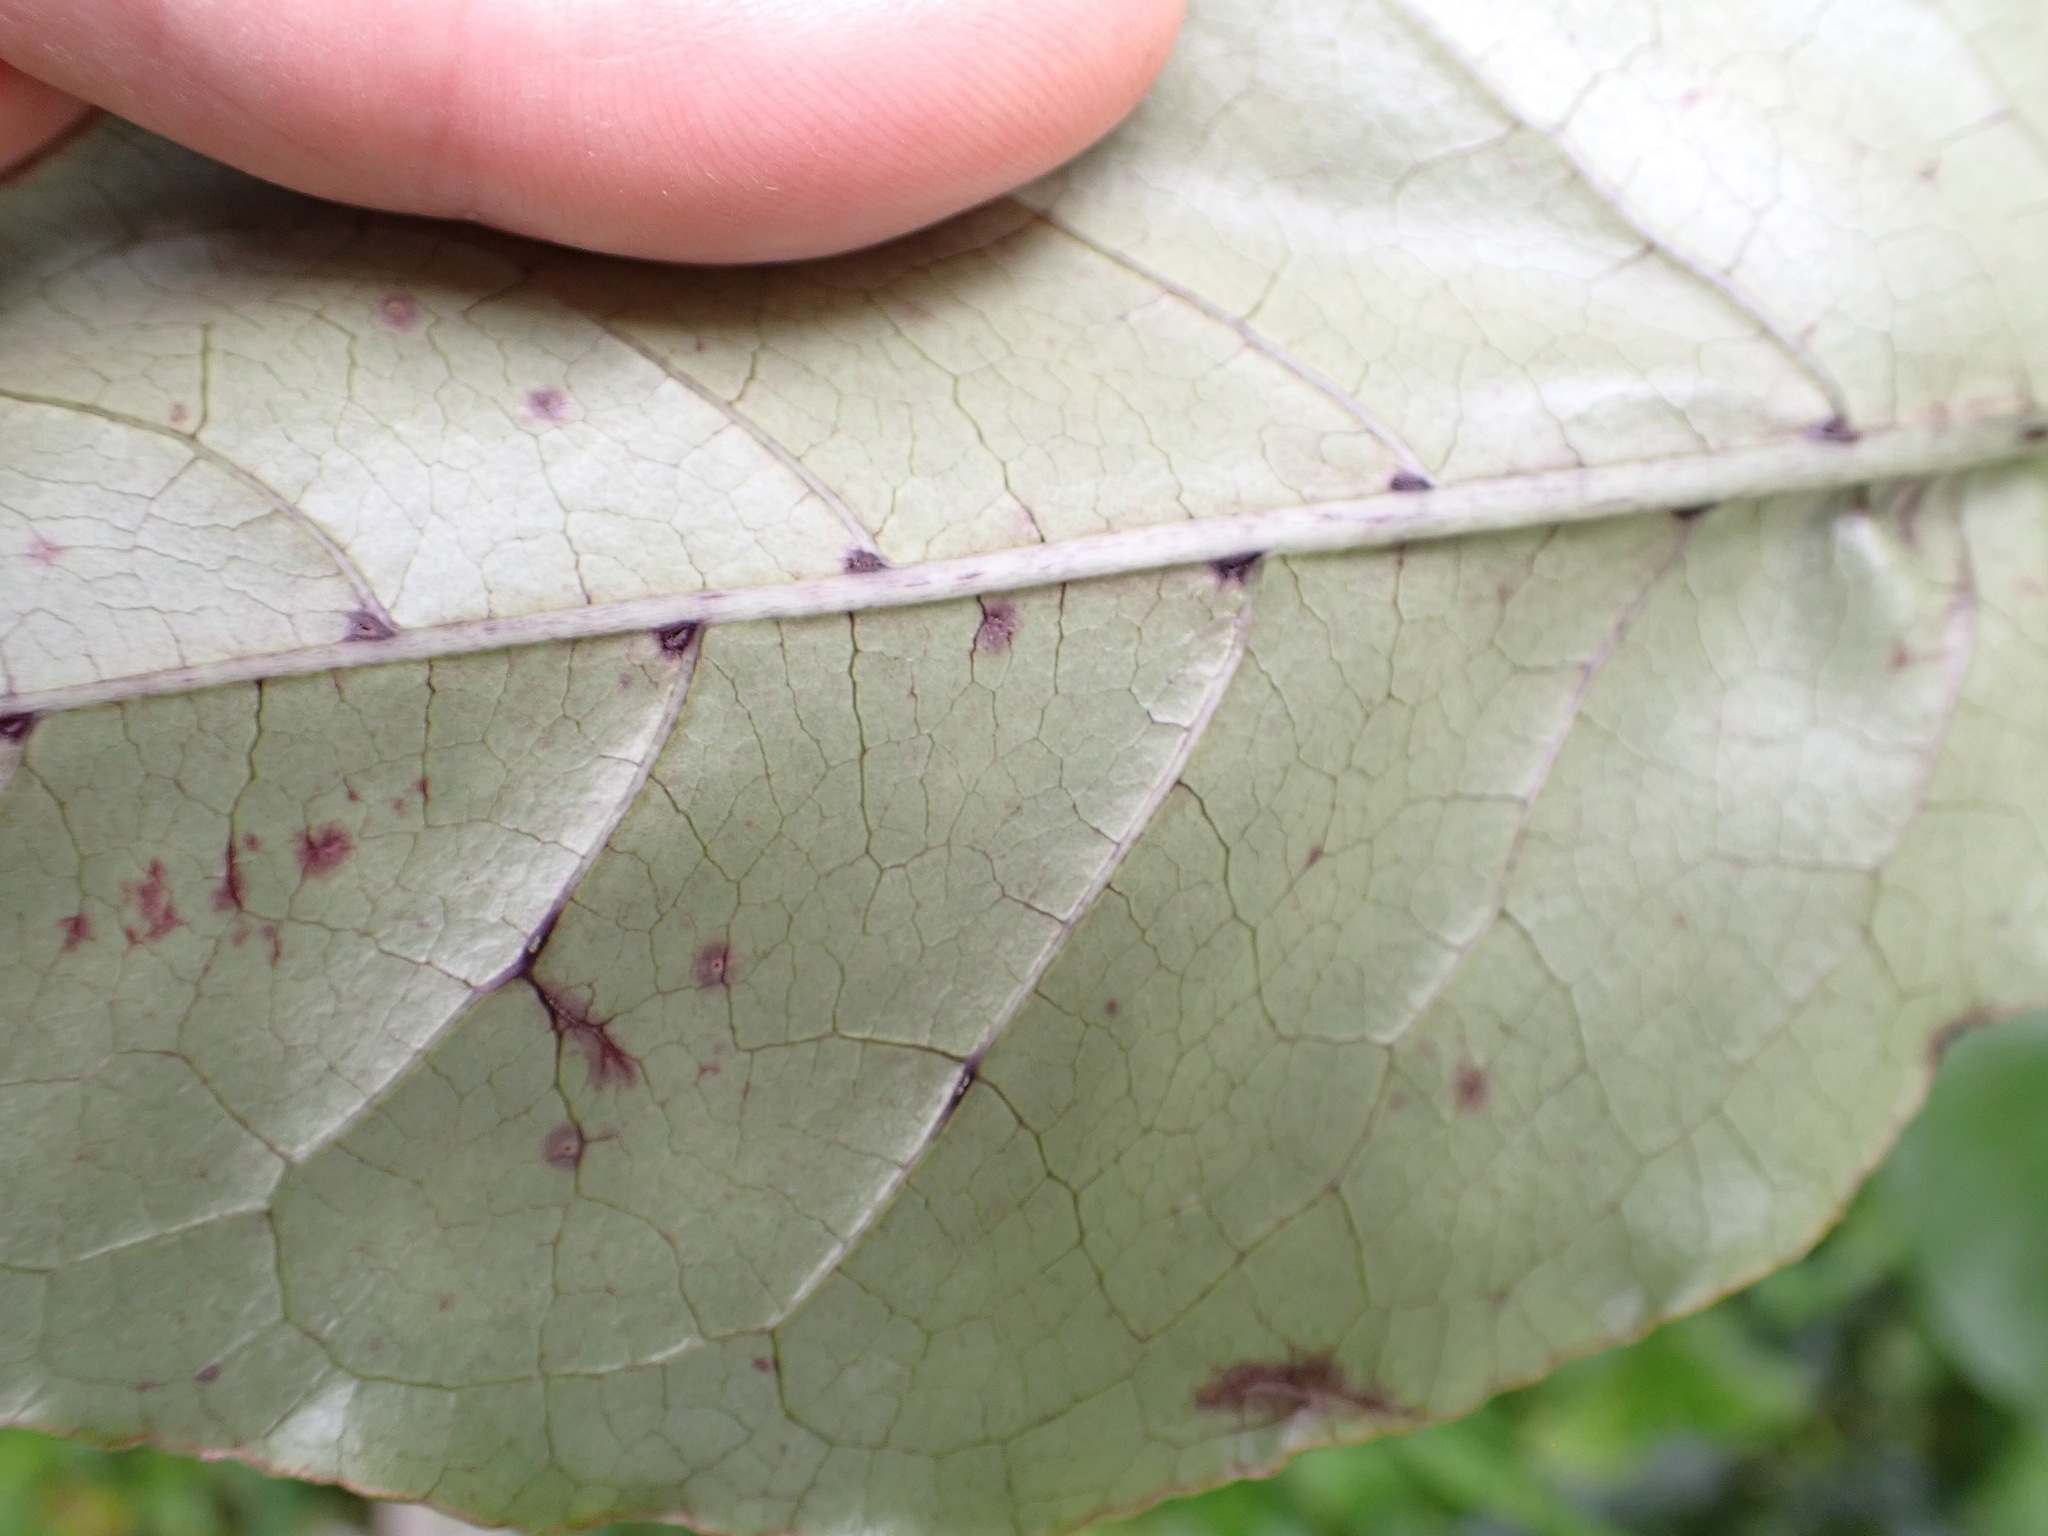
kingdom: Plantae
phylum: Tracheophyta
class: Magnoliopsida
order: Gentianales
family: Rubiaceae
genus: Coprosma
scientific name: Coprosma autumnalis
